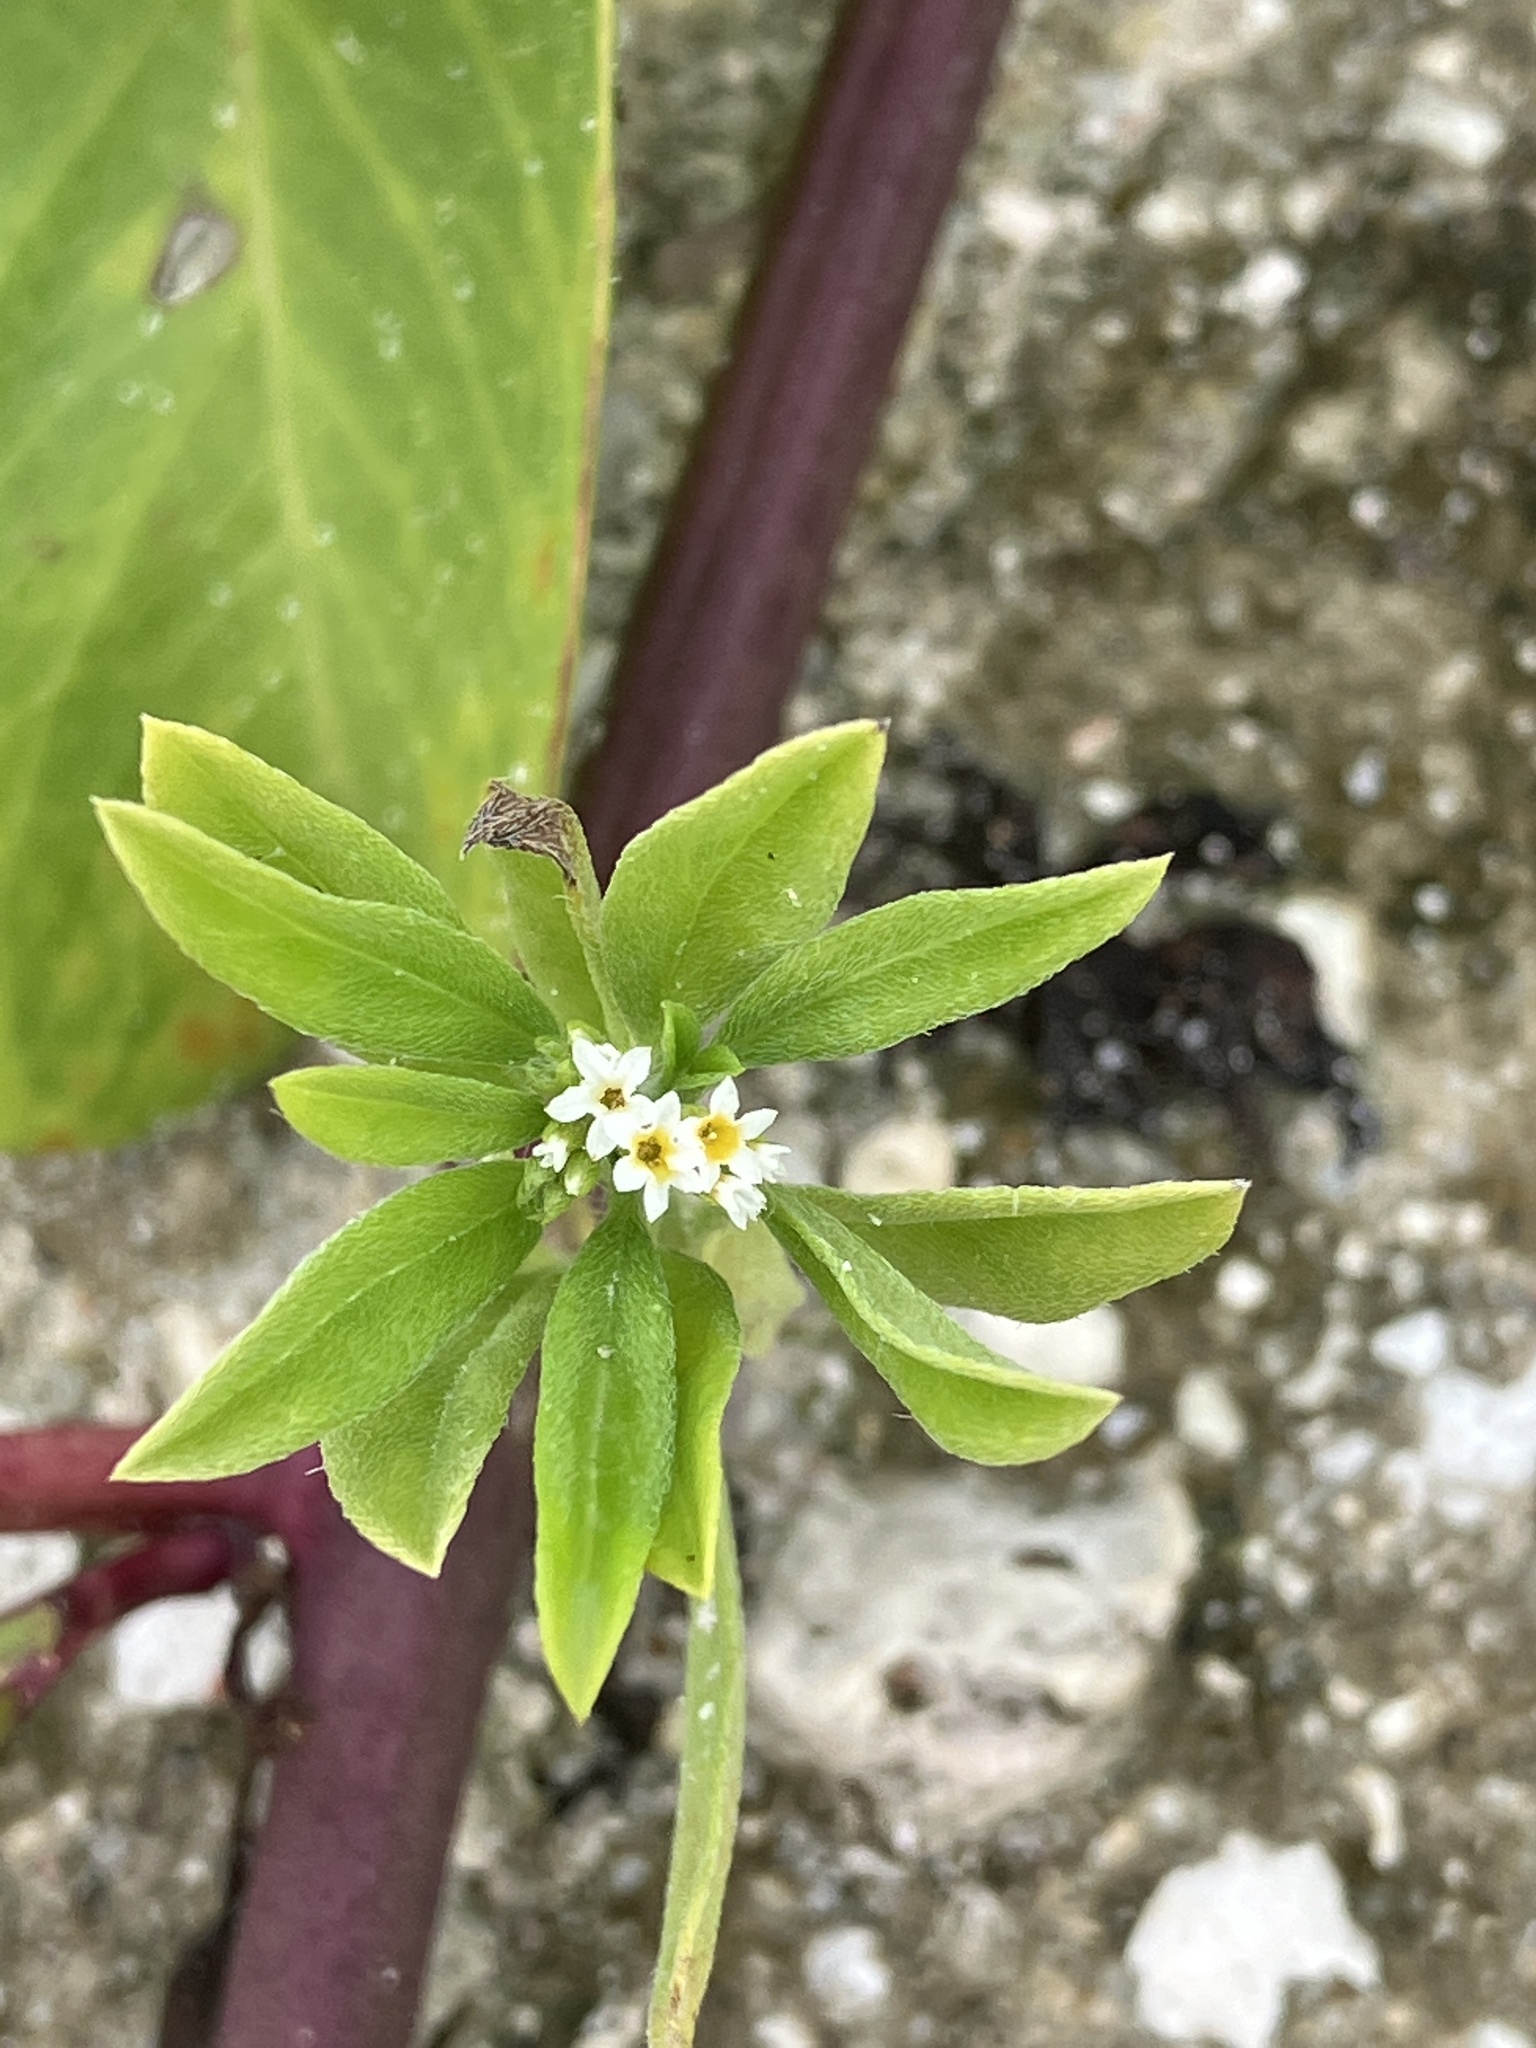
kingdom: Plantae
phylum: Tracheophyta
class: Magnoliopsida
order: Boraginales
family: Heliotropiaceae
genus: Euploca
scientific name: Euploca procumbens
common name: Fourspike heliotrope
